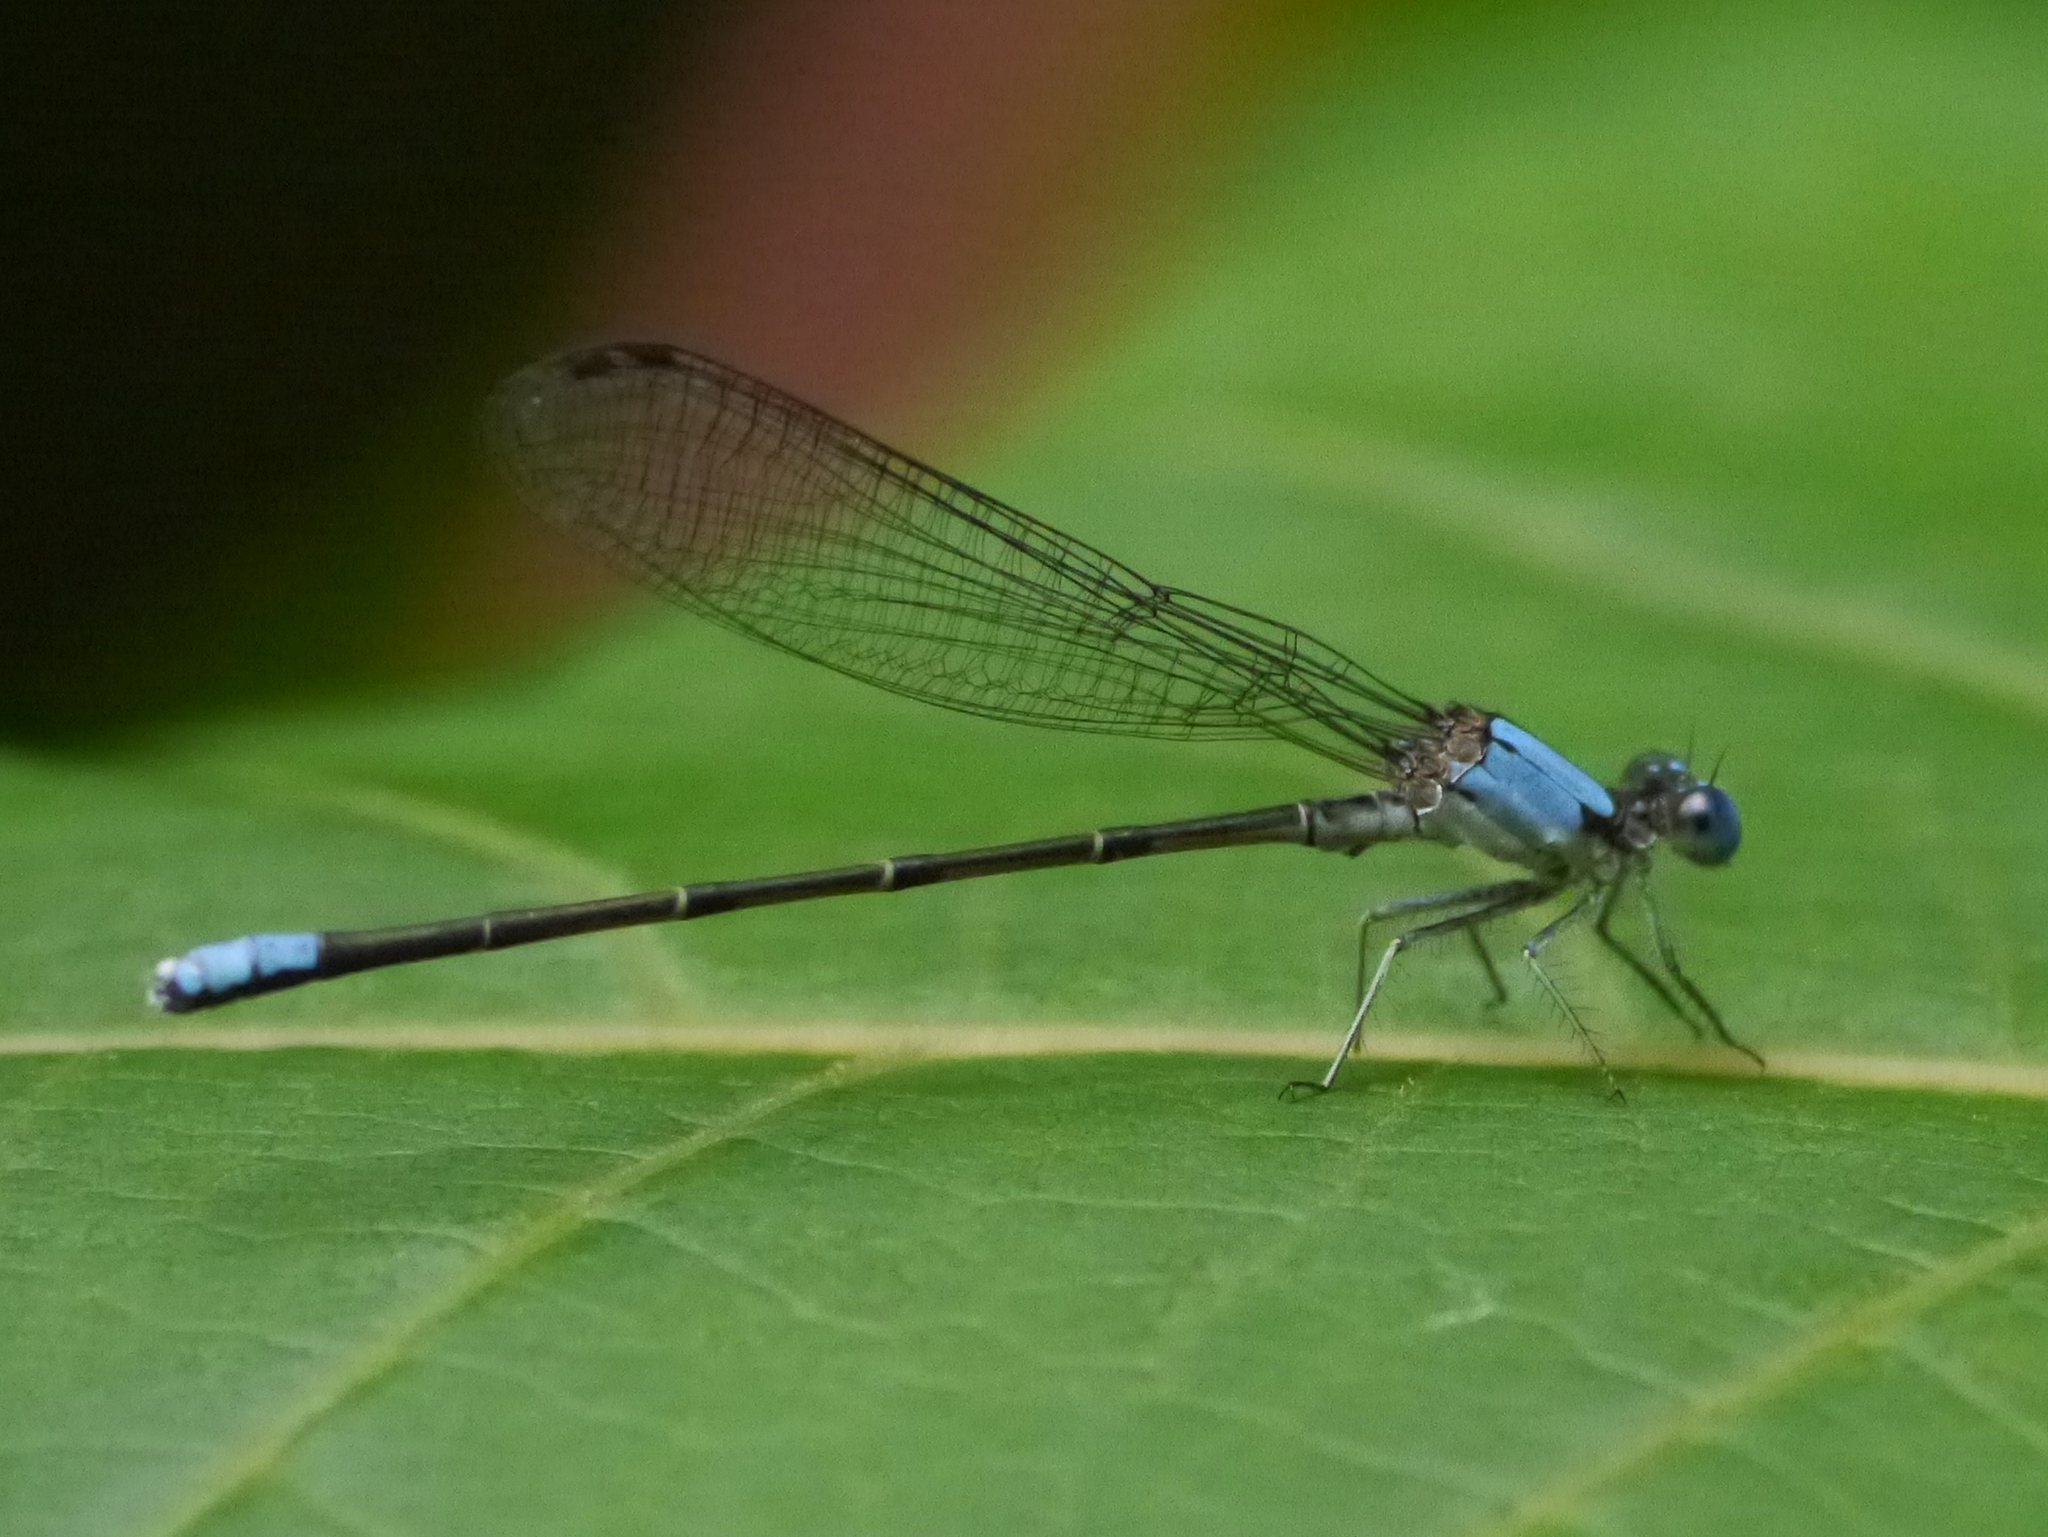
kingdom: Animalia
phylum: Arthropoda
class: Insecta
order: Odonata
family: Coenagrionidae
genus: Argia
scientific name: Argia apicalis
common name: Blue-fronted dancer
